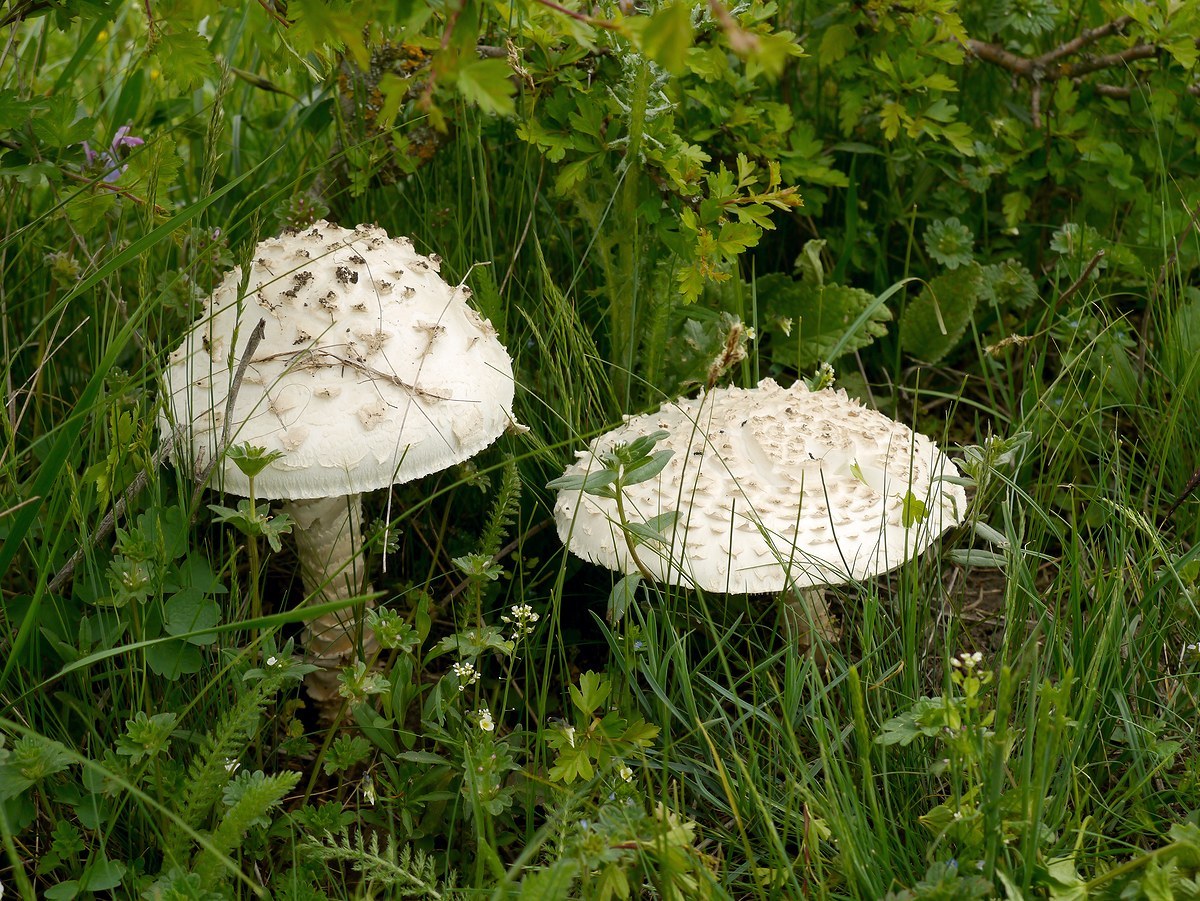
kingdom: Fungi
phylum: Basidiomycota
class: Agaricomycetes
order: Agaricales
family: Amanitaceae
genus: Amanita
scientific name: Amanita vittadinii
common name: Barefoot amanita
